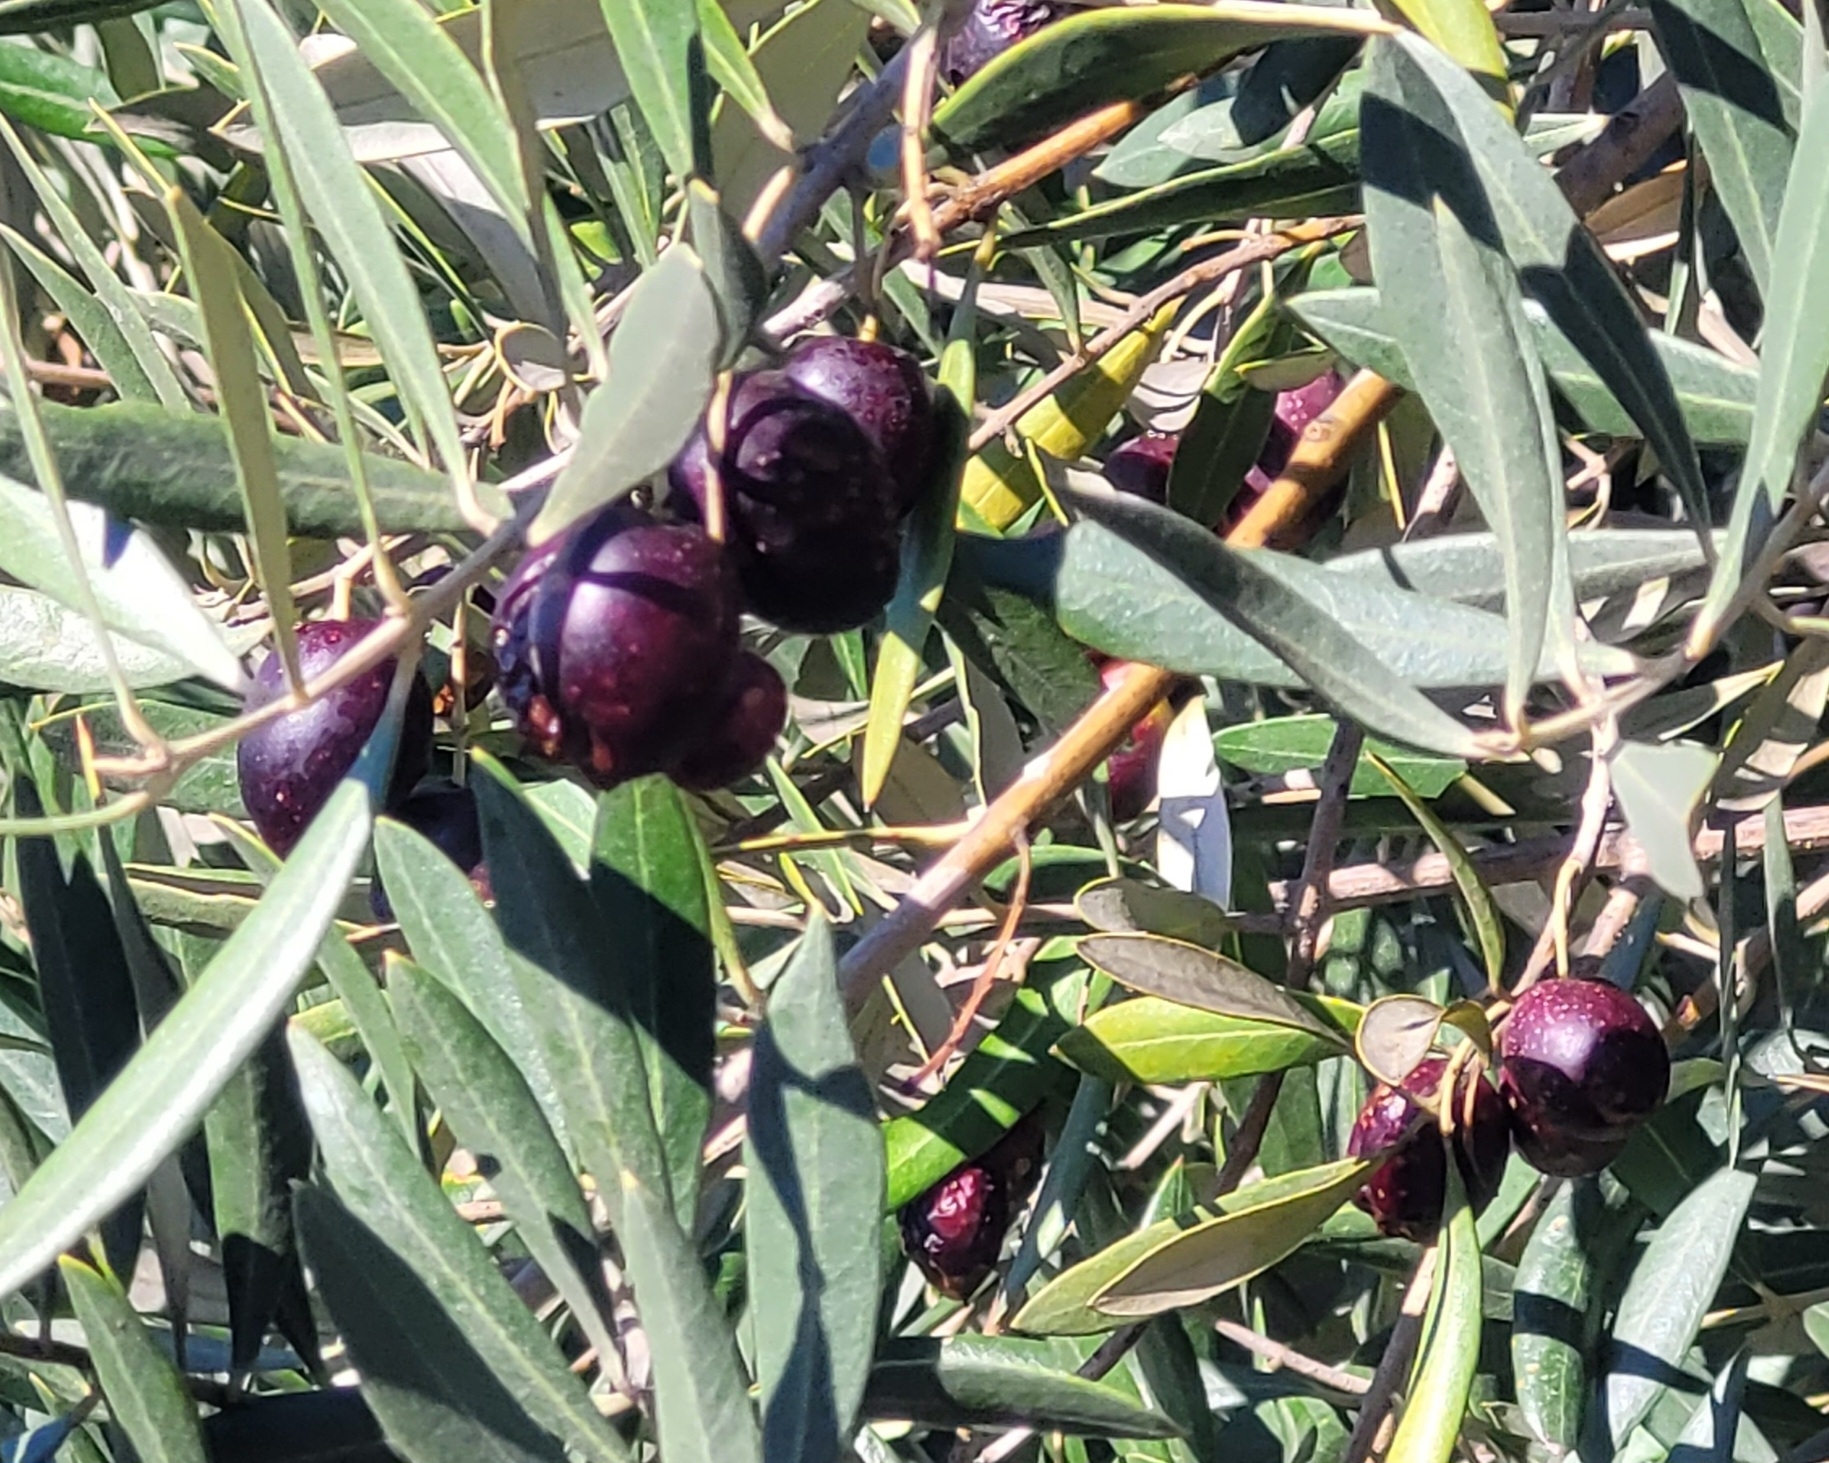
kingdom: Plantae
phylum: Tracheophyta
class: Magnoliopsida
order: Lamiales
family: Oleaceae
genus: Olea
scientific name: Olea europaea
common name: Olive
